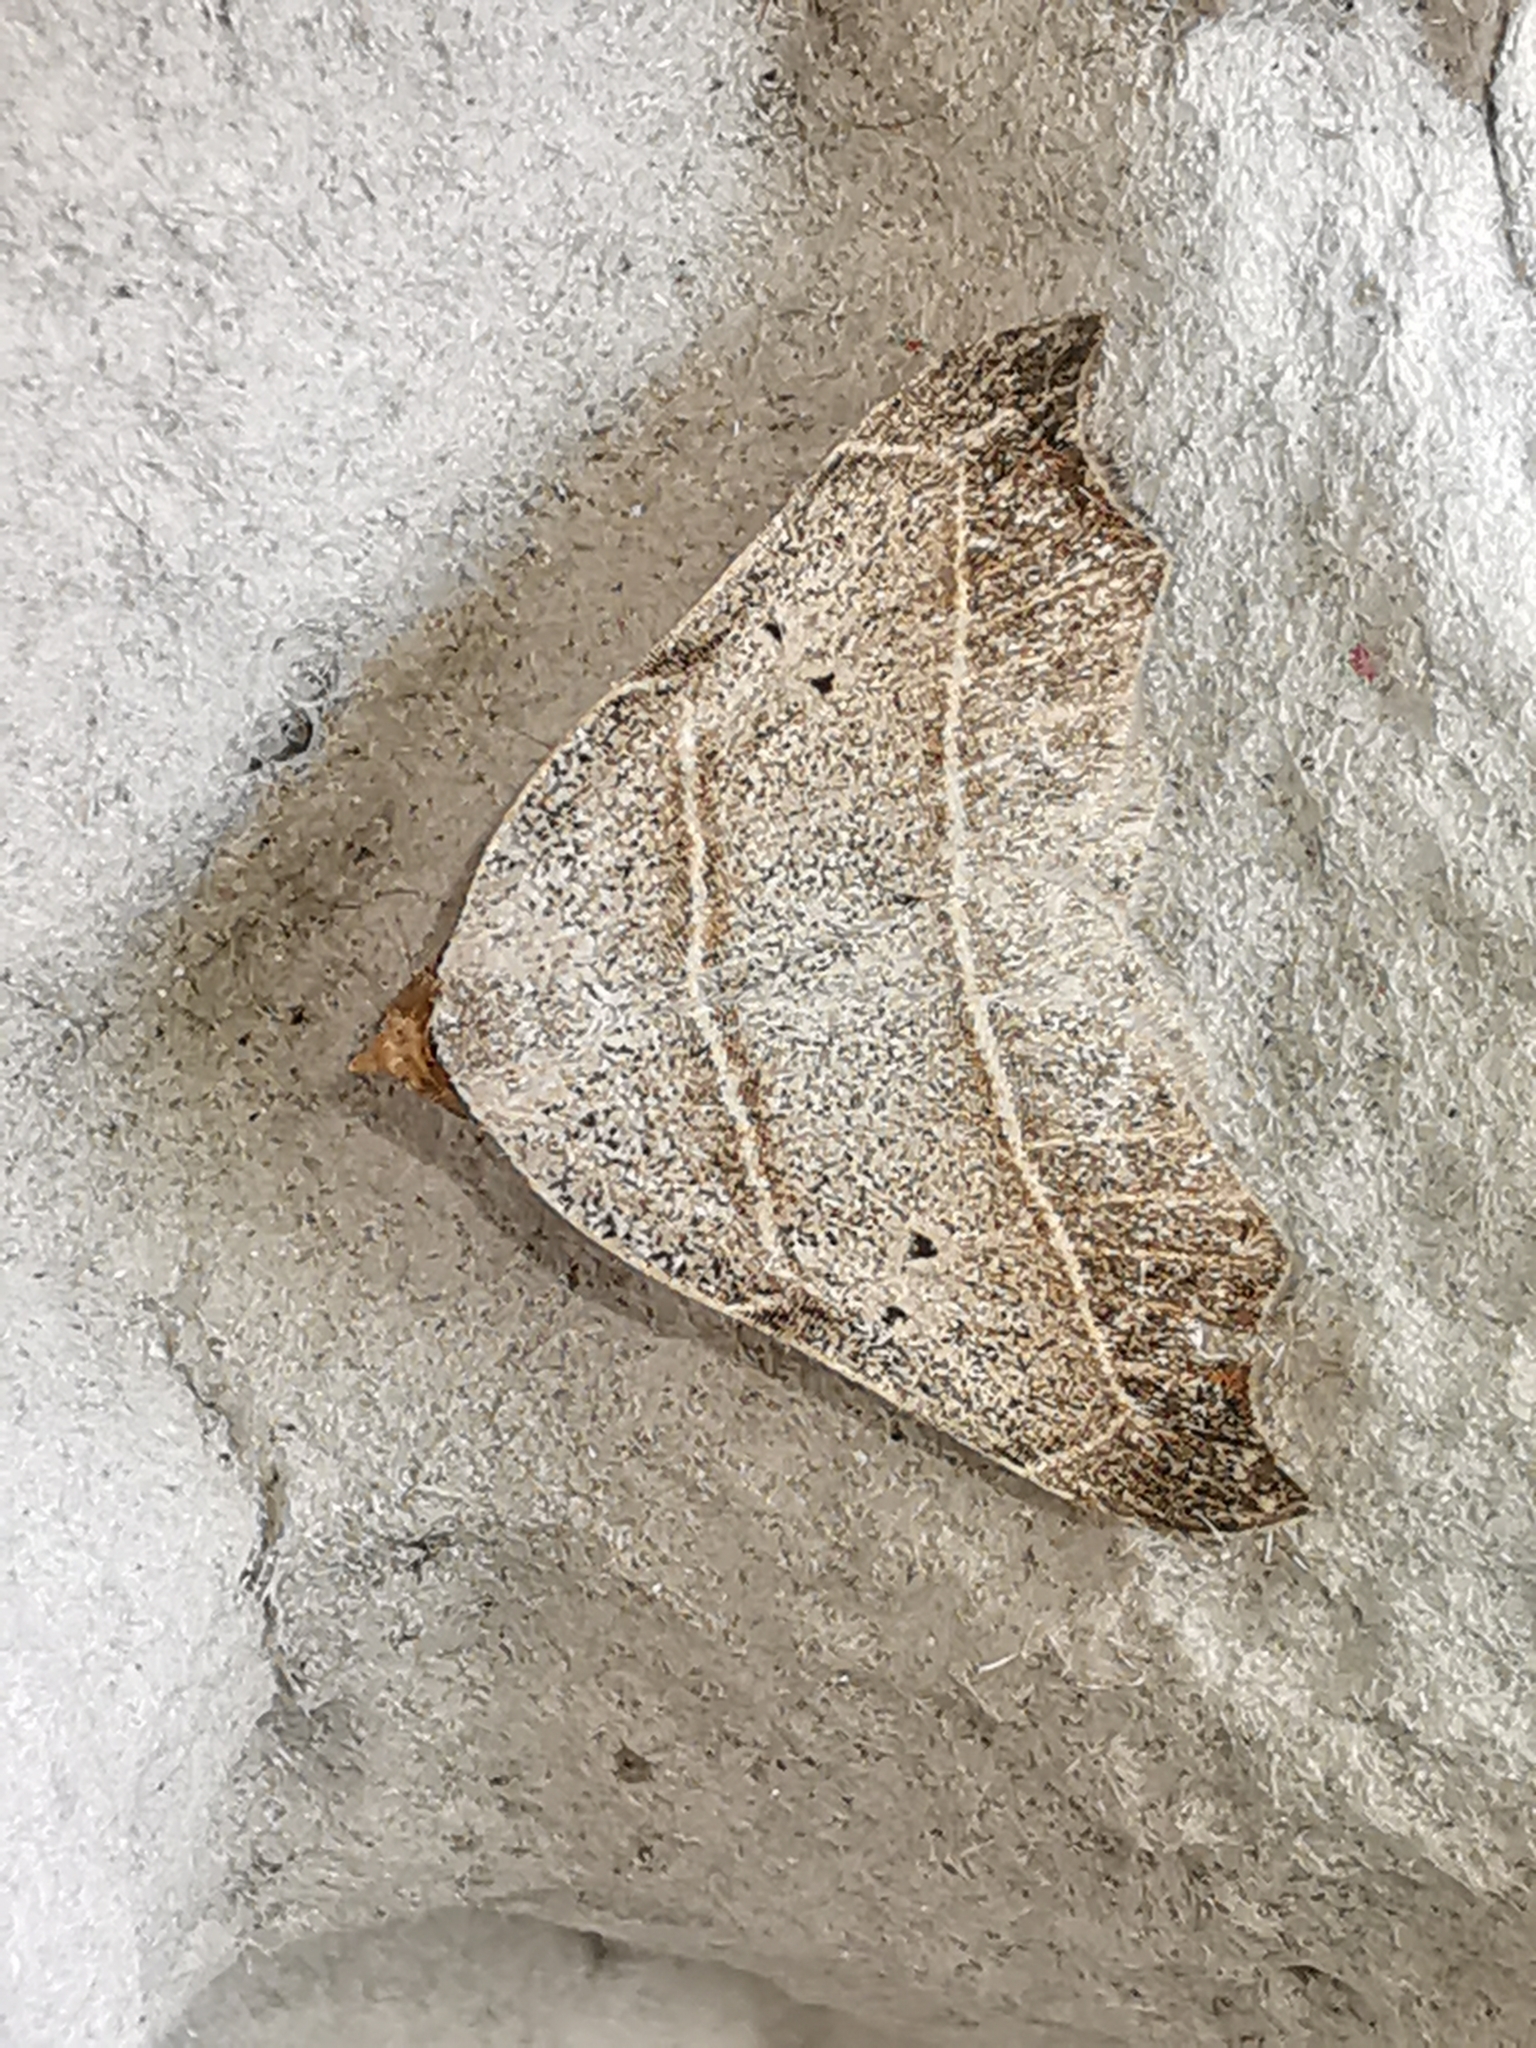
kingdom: Animalia
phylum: Arthropoda
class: Insecta
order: Lepidoptera
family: Erebidae
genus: Laspeyria
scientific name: Laspeyria flexula
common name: Beautiful hook-tip
